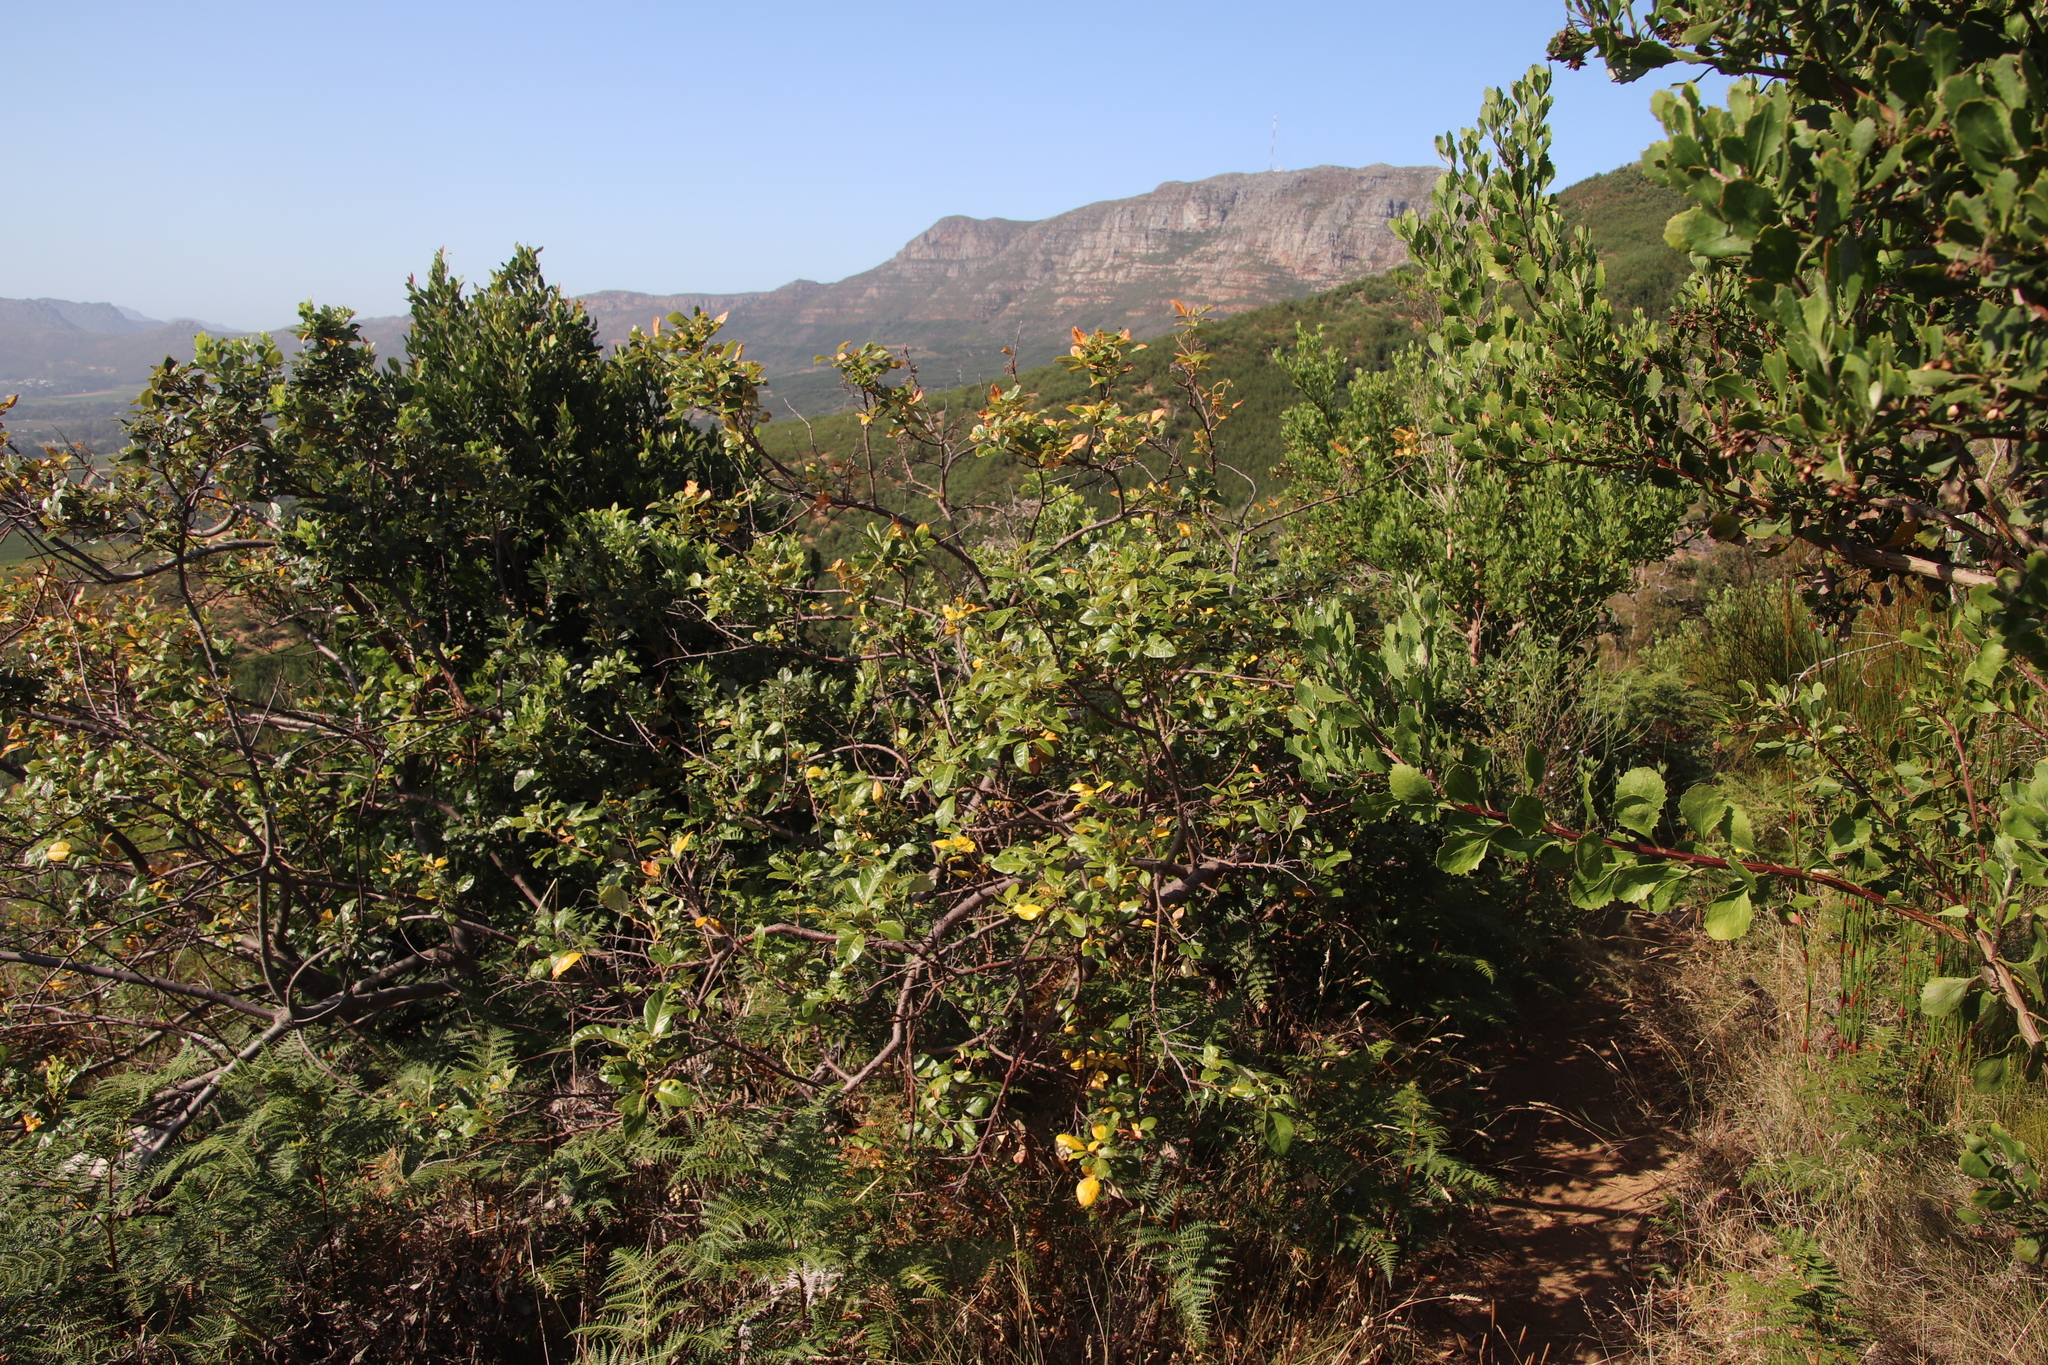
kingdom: Plantae
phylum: Tracheophyta
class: Magnoliopsida
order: Sapindales
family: Anacardiaceae
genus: Searsia
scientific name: Searsia tomentosa
